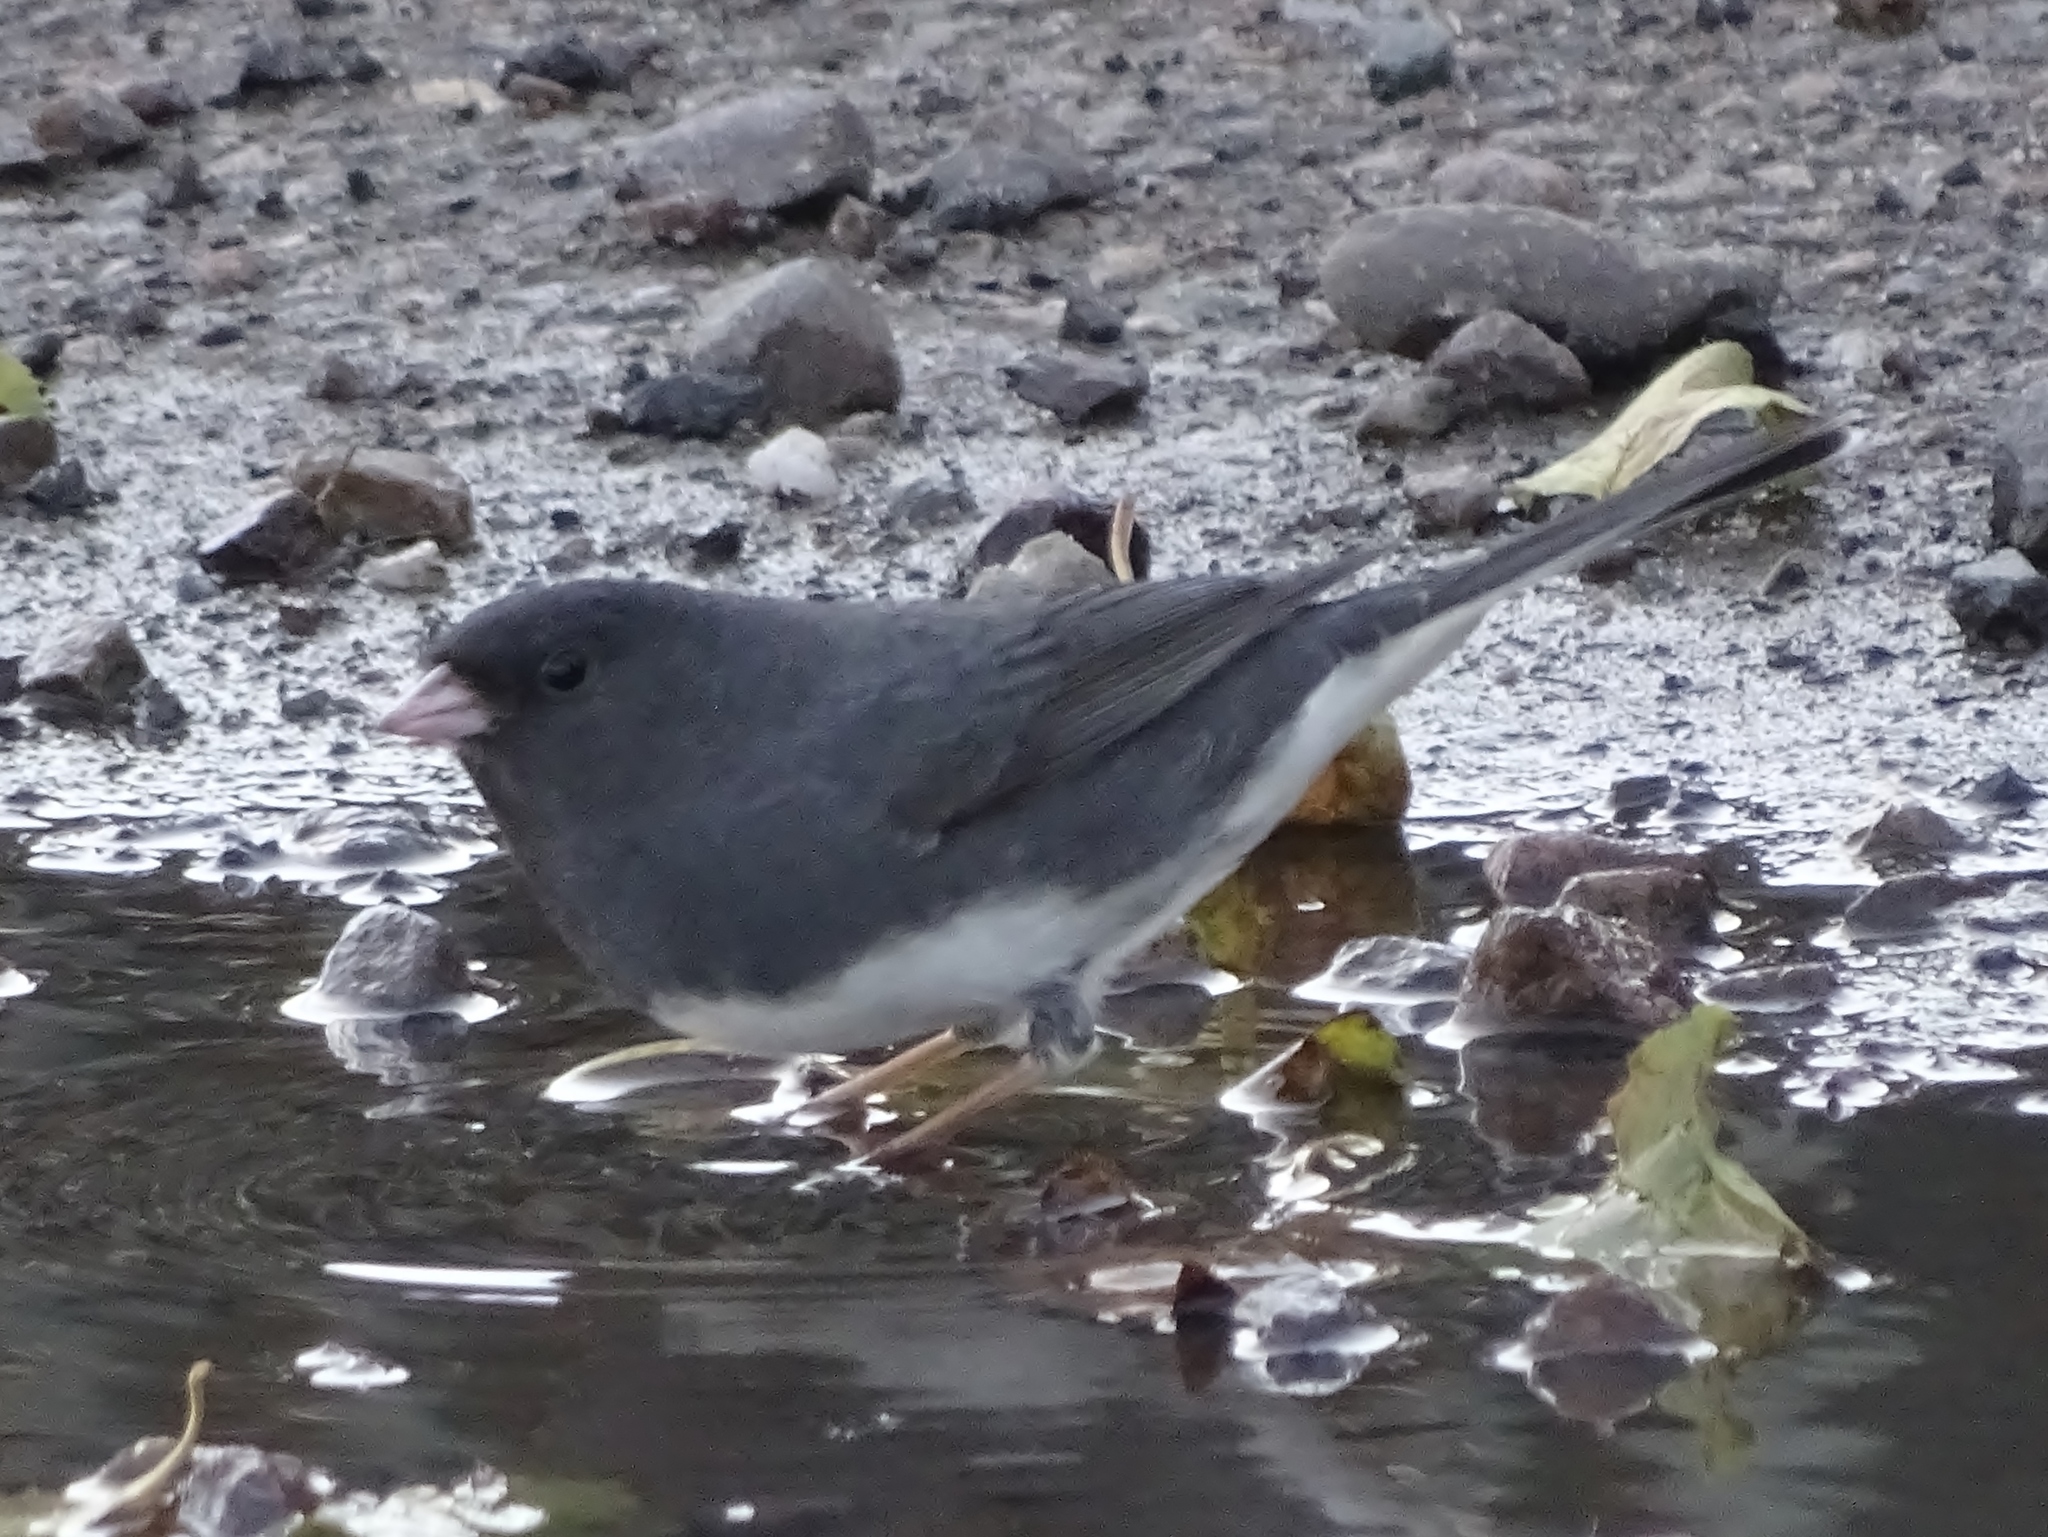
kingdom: Animalia
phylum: Chordata
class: Aves
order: Passeriformes
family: Passerellidae
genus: Junco
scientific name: Junco hyemalis
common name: Dark-eyed junco
